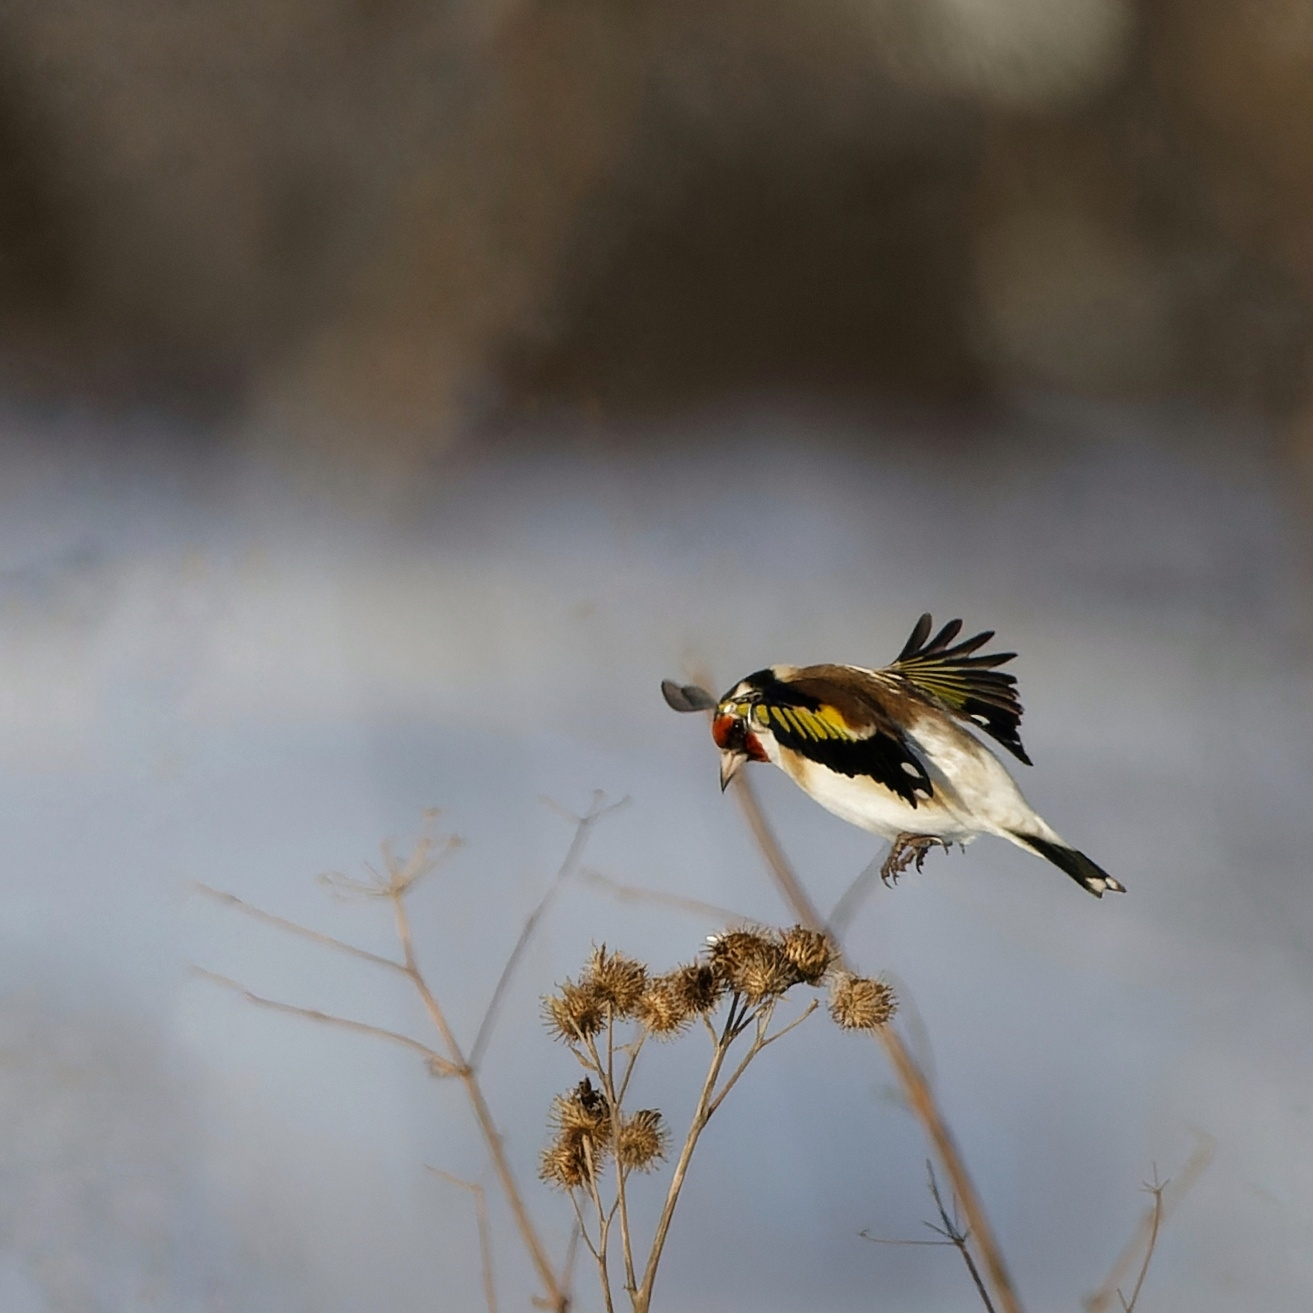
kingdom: Animalia
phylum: Chordata
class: Aves
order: Passeriformes
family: Fringillidae
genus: Carduelis
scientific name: Carduelis carduelis
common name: European goldfinch
